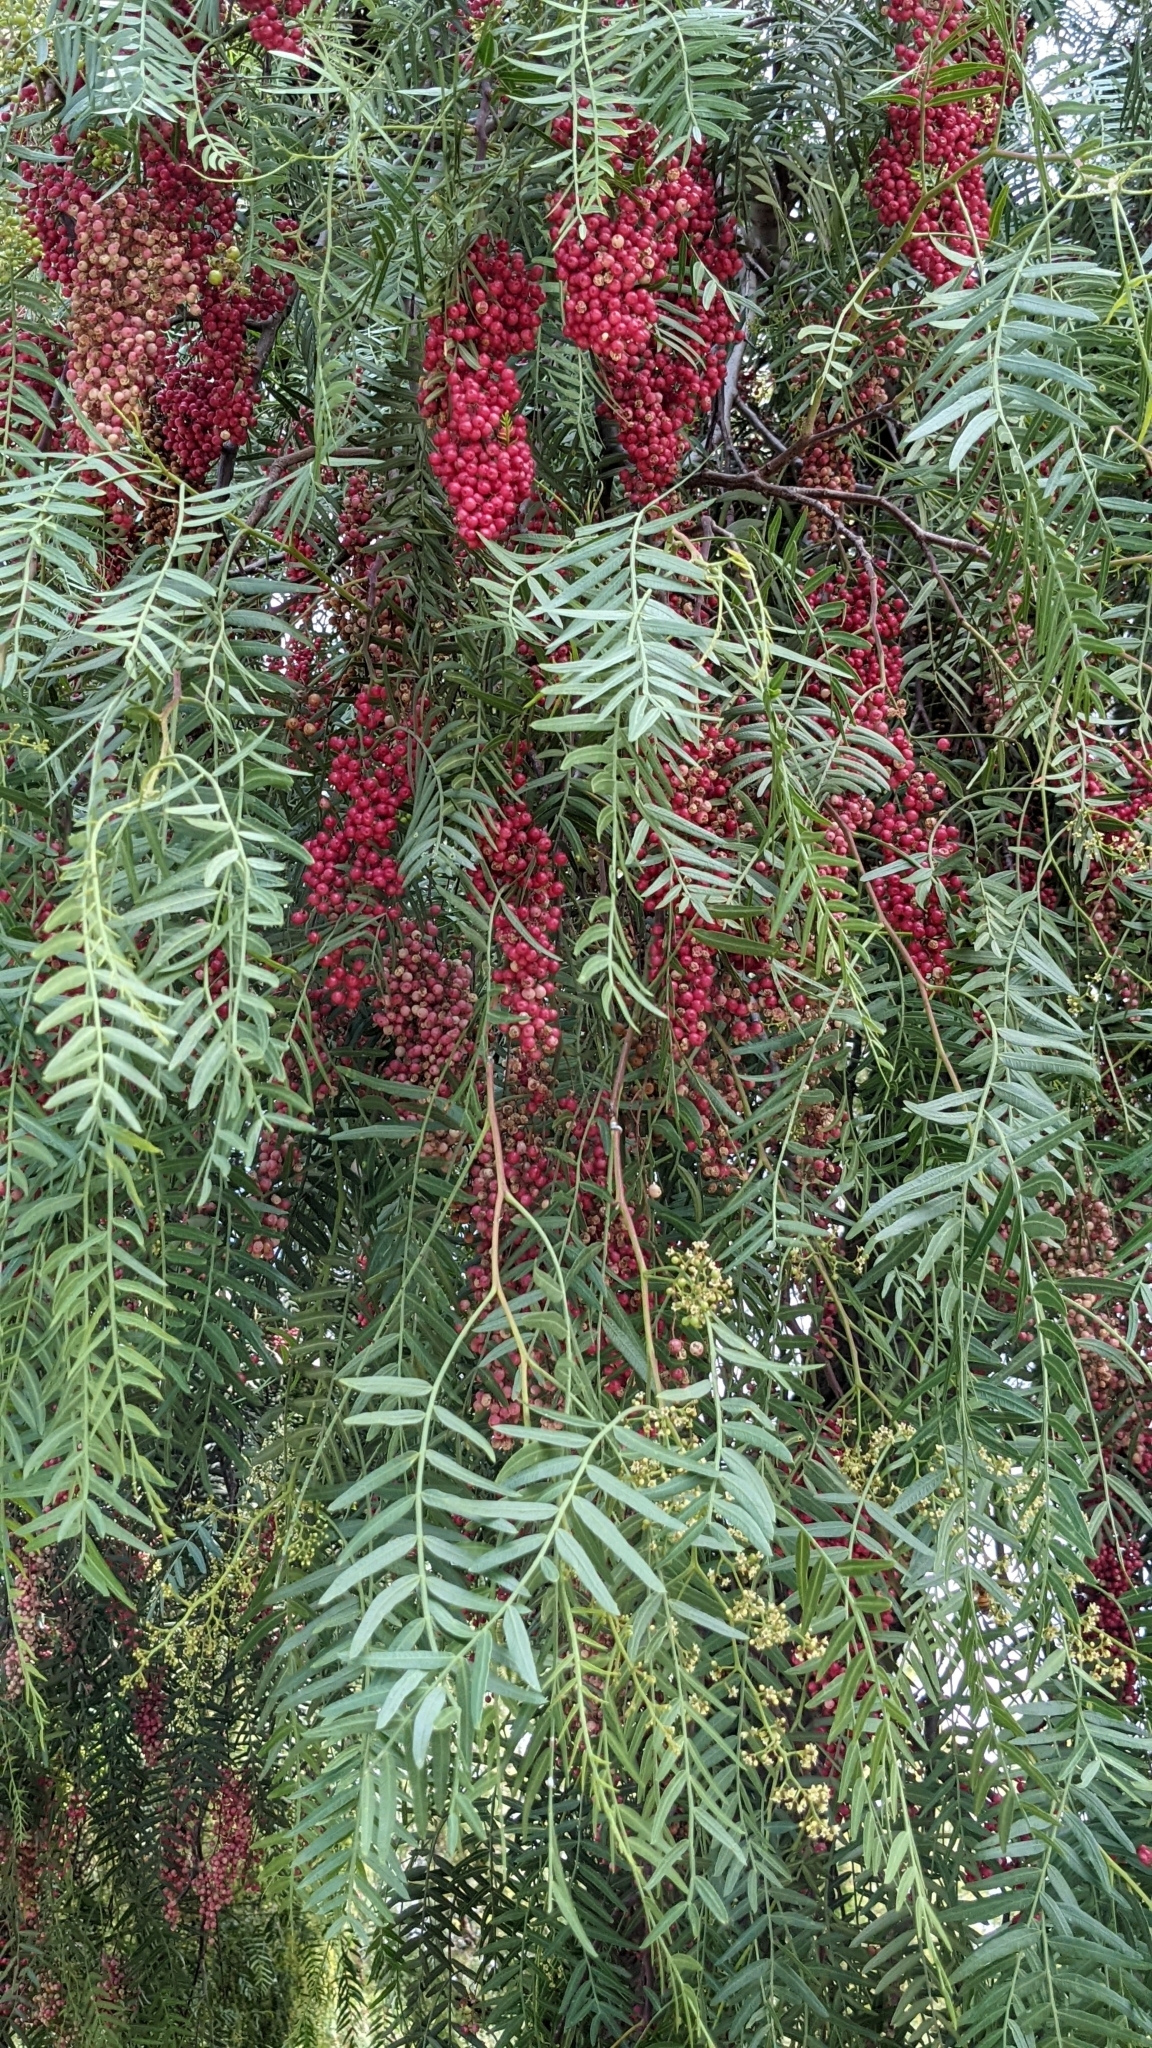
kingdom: Plantae
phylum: Tracheophyta
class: Magnoliopsida
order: Sapindales
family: Anacardiaceae
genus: Schinus
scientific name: Schinus molle
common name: Peruvian peppertree
